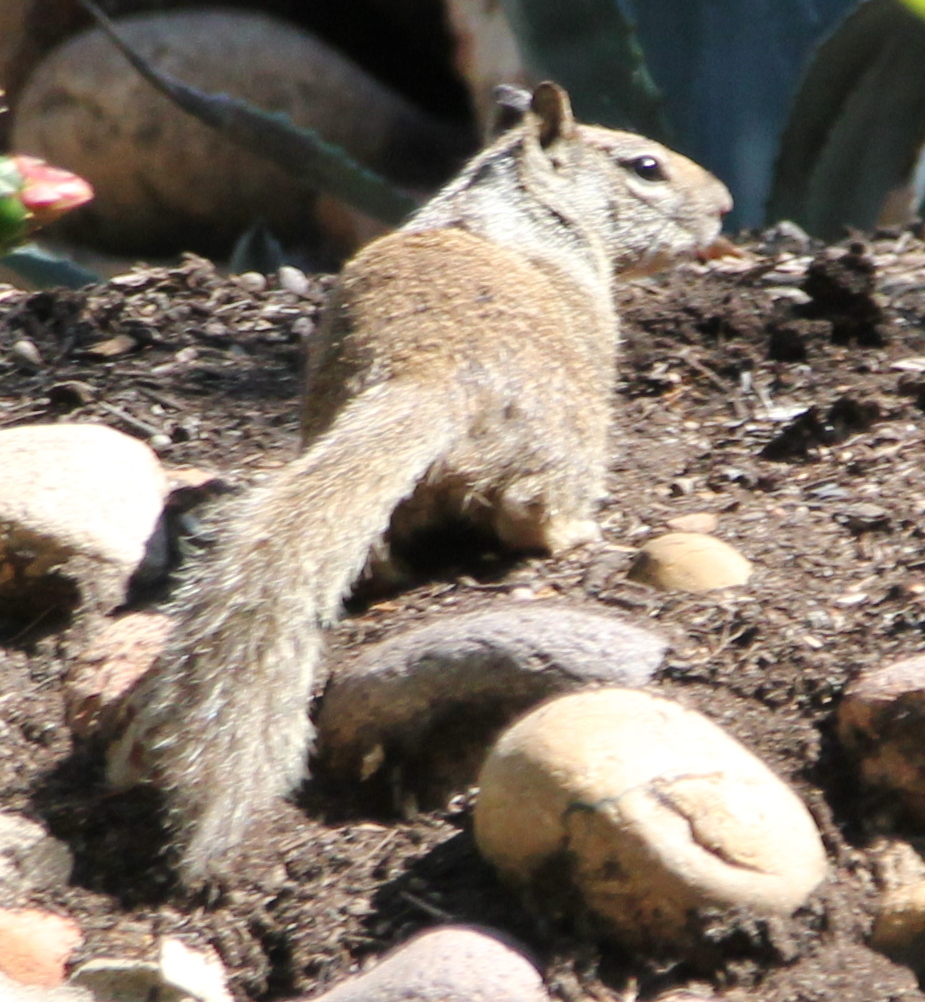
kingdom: Animalia
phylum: Chordata
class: Mammalia
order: Rodentia
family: Sciuridae
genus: Otospermophilus
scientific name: Otospermophilus beecheyi
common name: California ground squirrel
